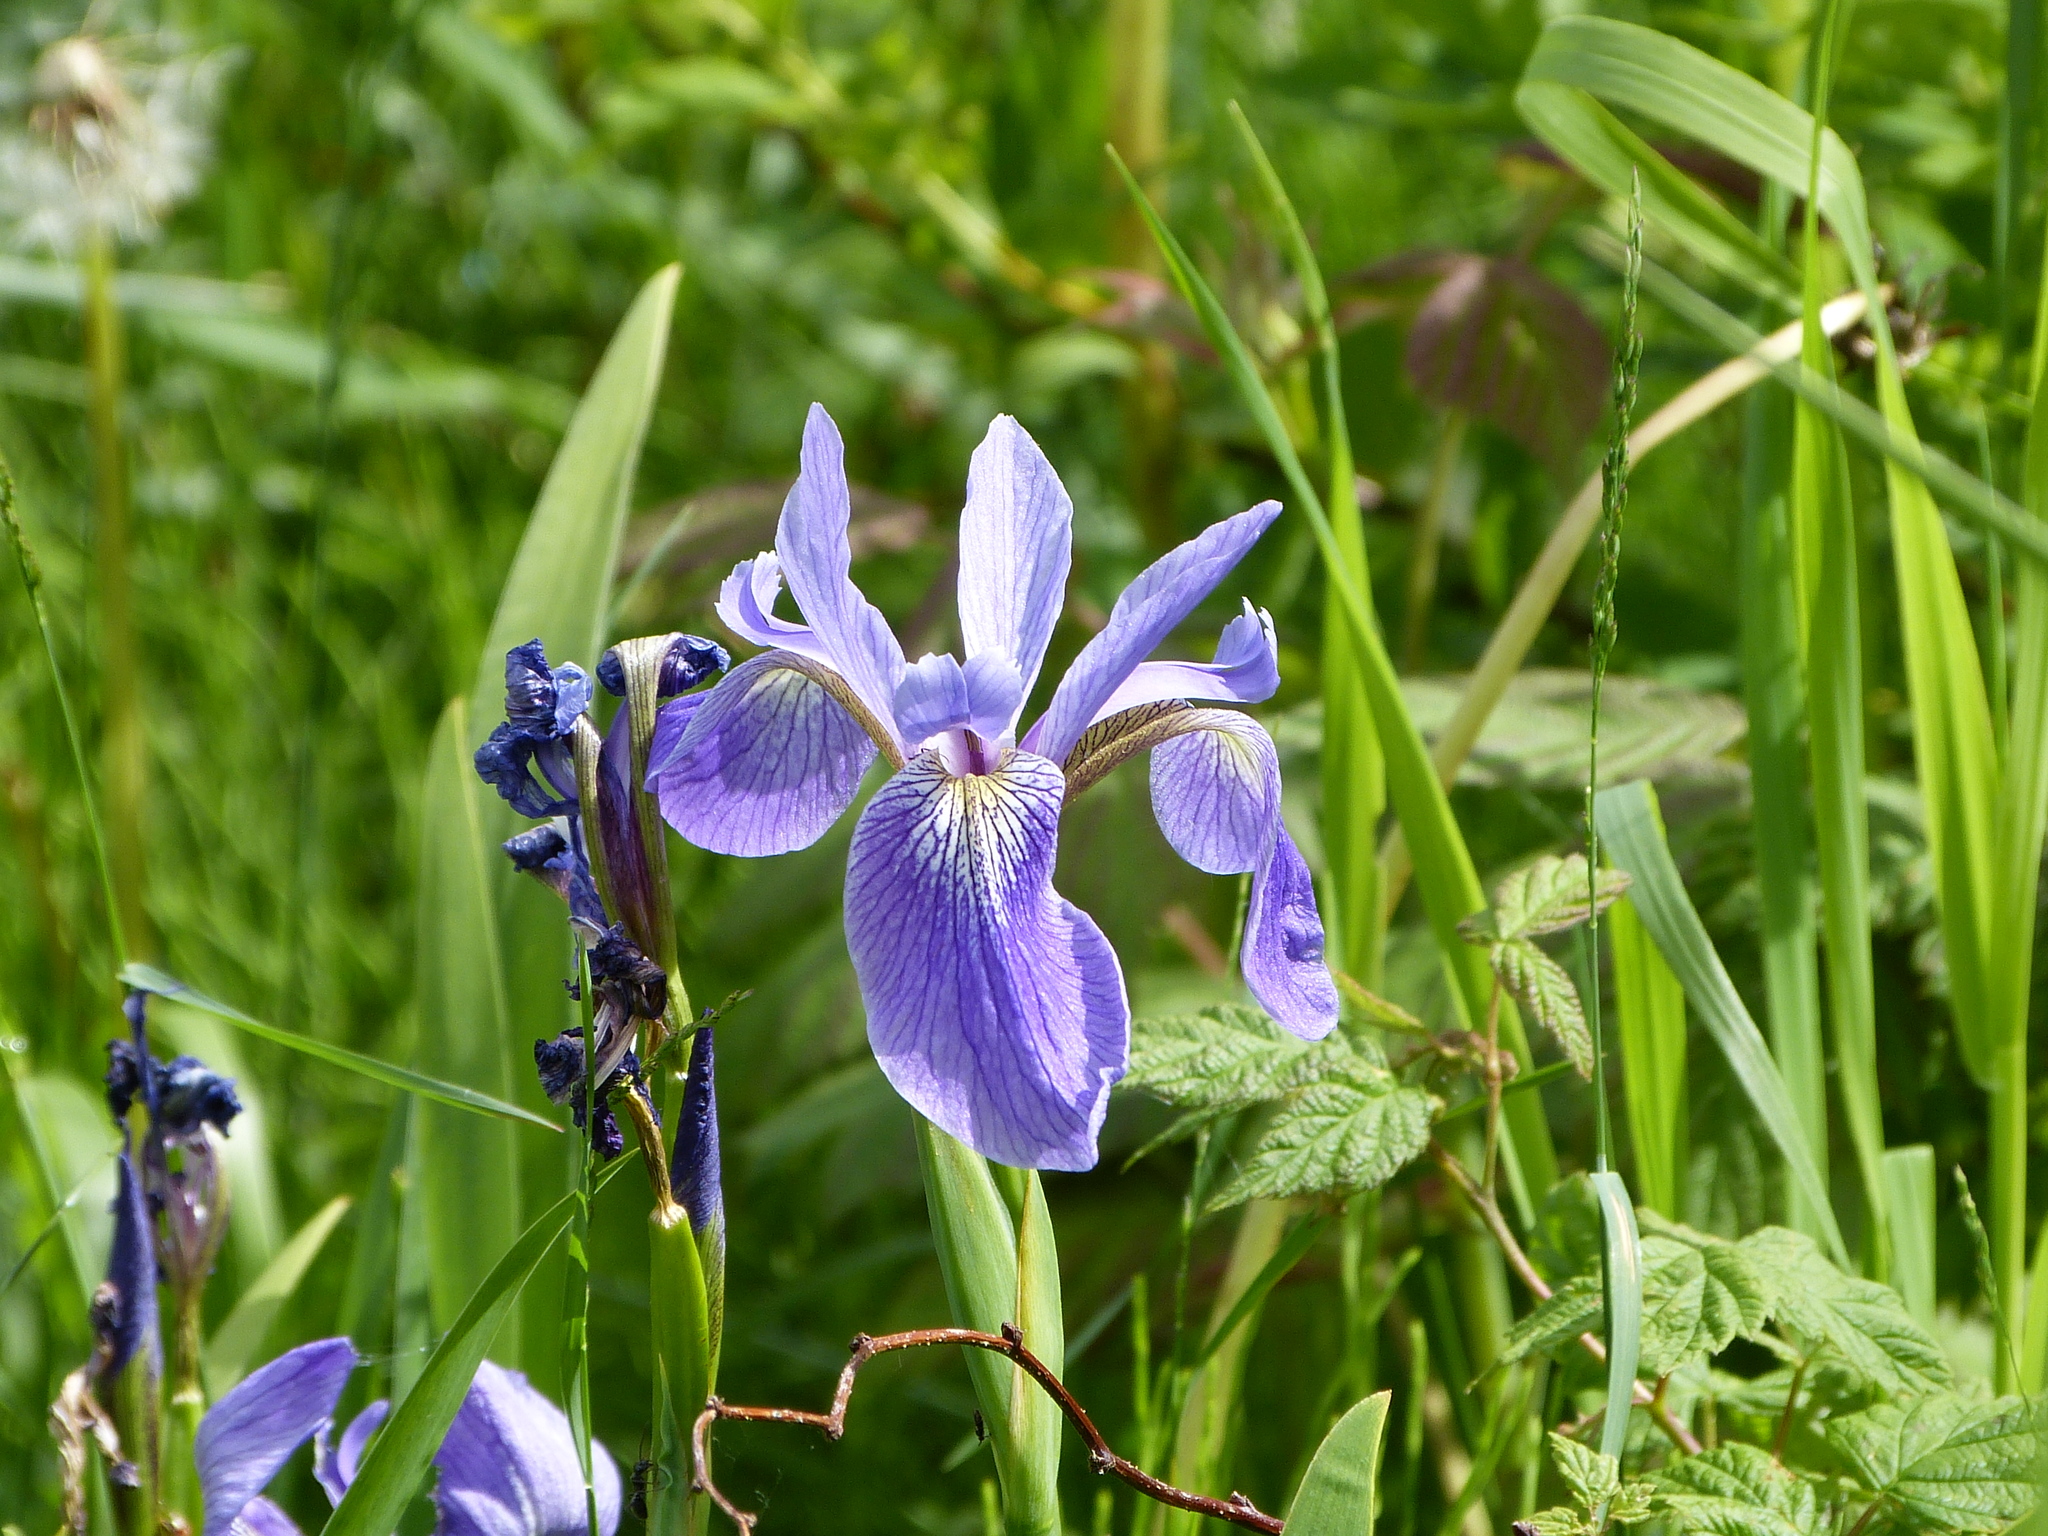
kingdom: Plantae
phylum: Tracheophyta
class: Liliopsida
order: Asparagales
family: Iridaceae
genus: Iris
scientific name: Iris versicolor
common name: Purple iris
